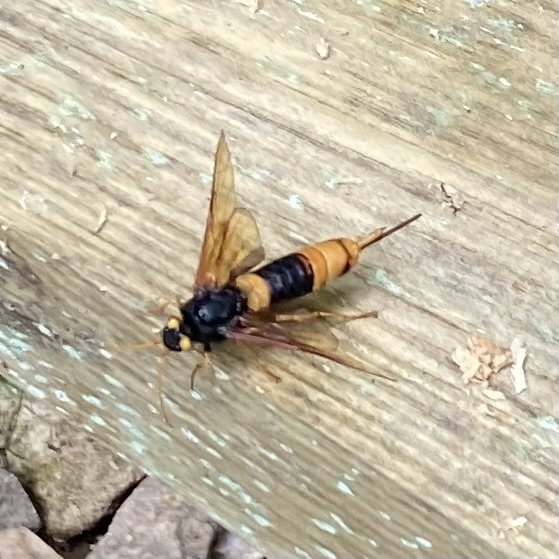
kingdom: Animalia
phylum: Arthropoda
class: Insecta
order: Hymenoptera
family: Siricidae
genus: Urocerus
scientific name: Urocerus gigas
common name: Giant woodwasp
